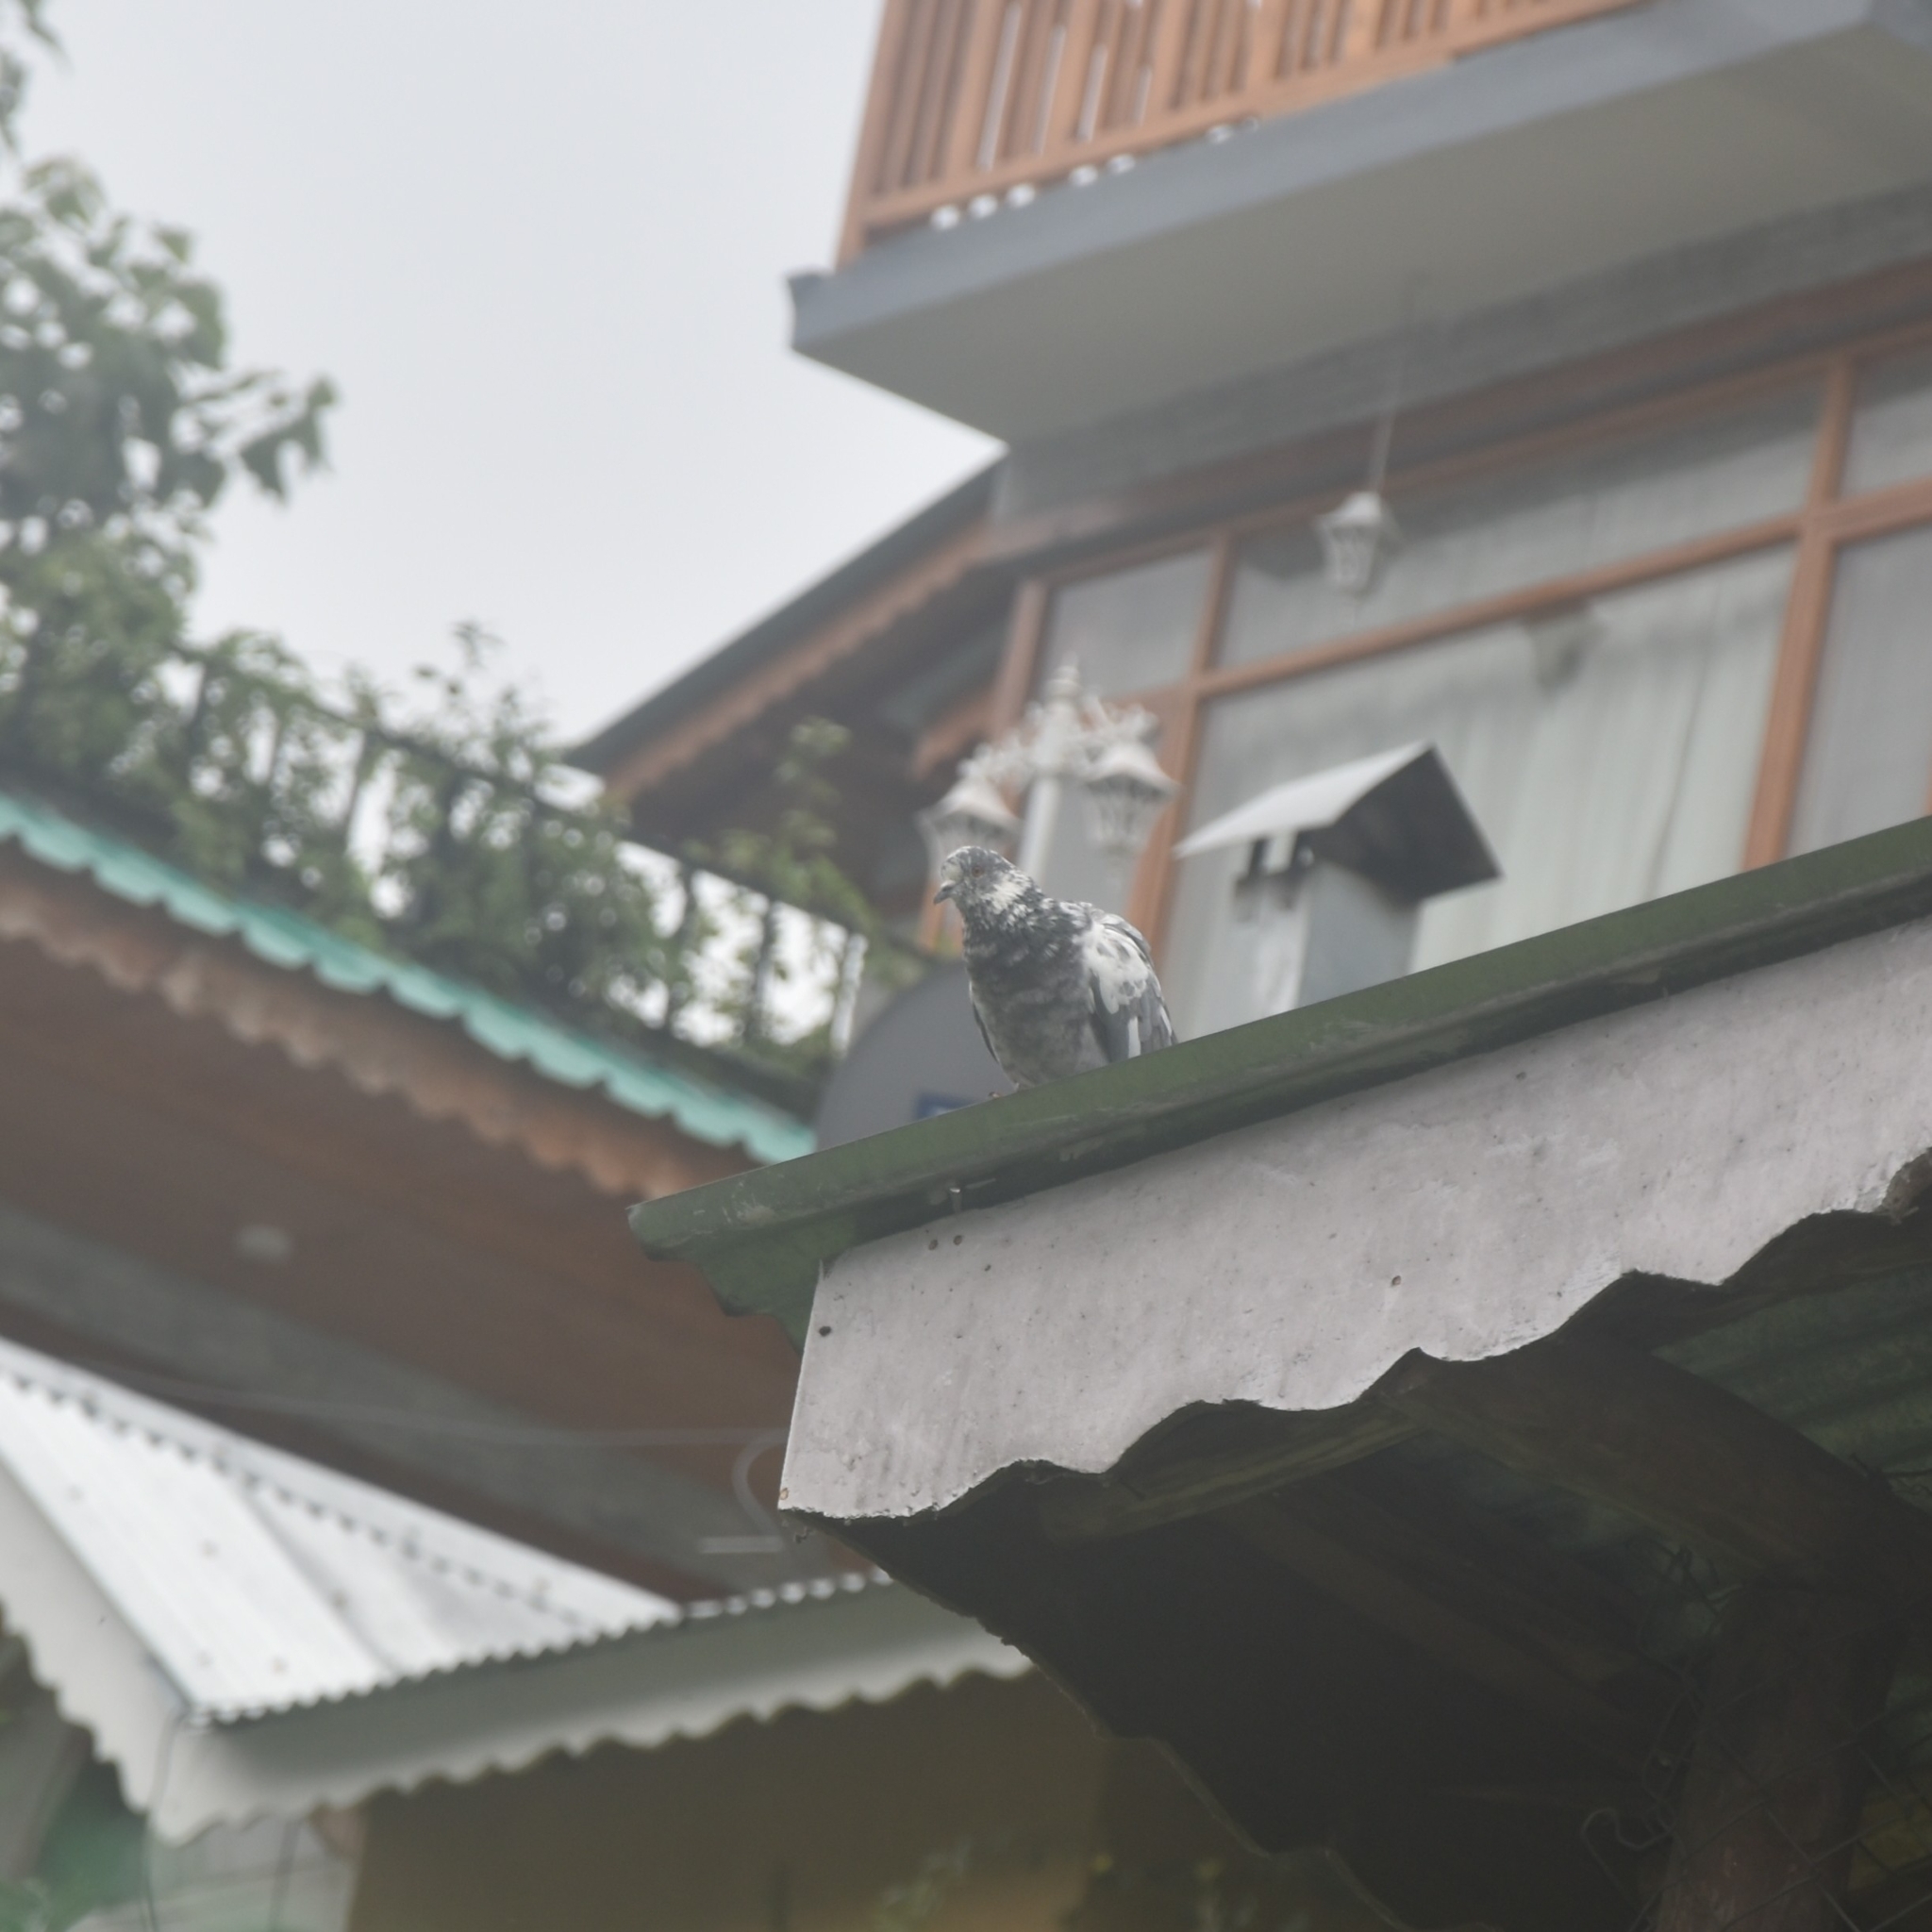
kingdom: Animalia
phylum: Chordata
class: Aves
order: Columbiformes
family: Columbidae
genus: Columba
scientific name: Columba livia
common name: Rock pigeon
